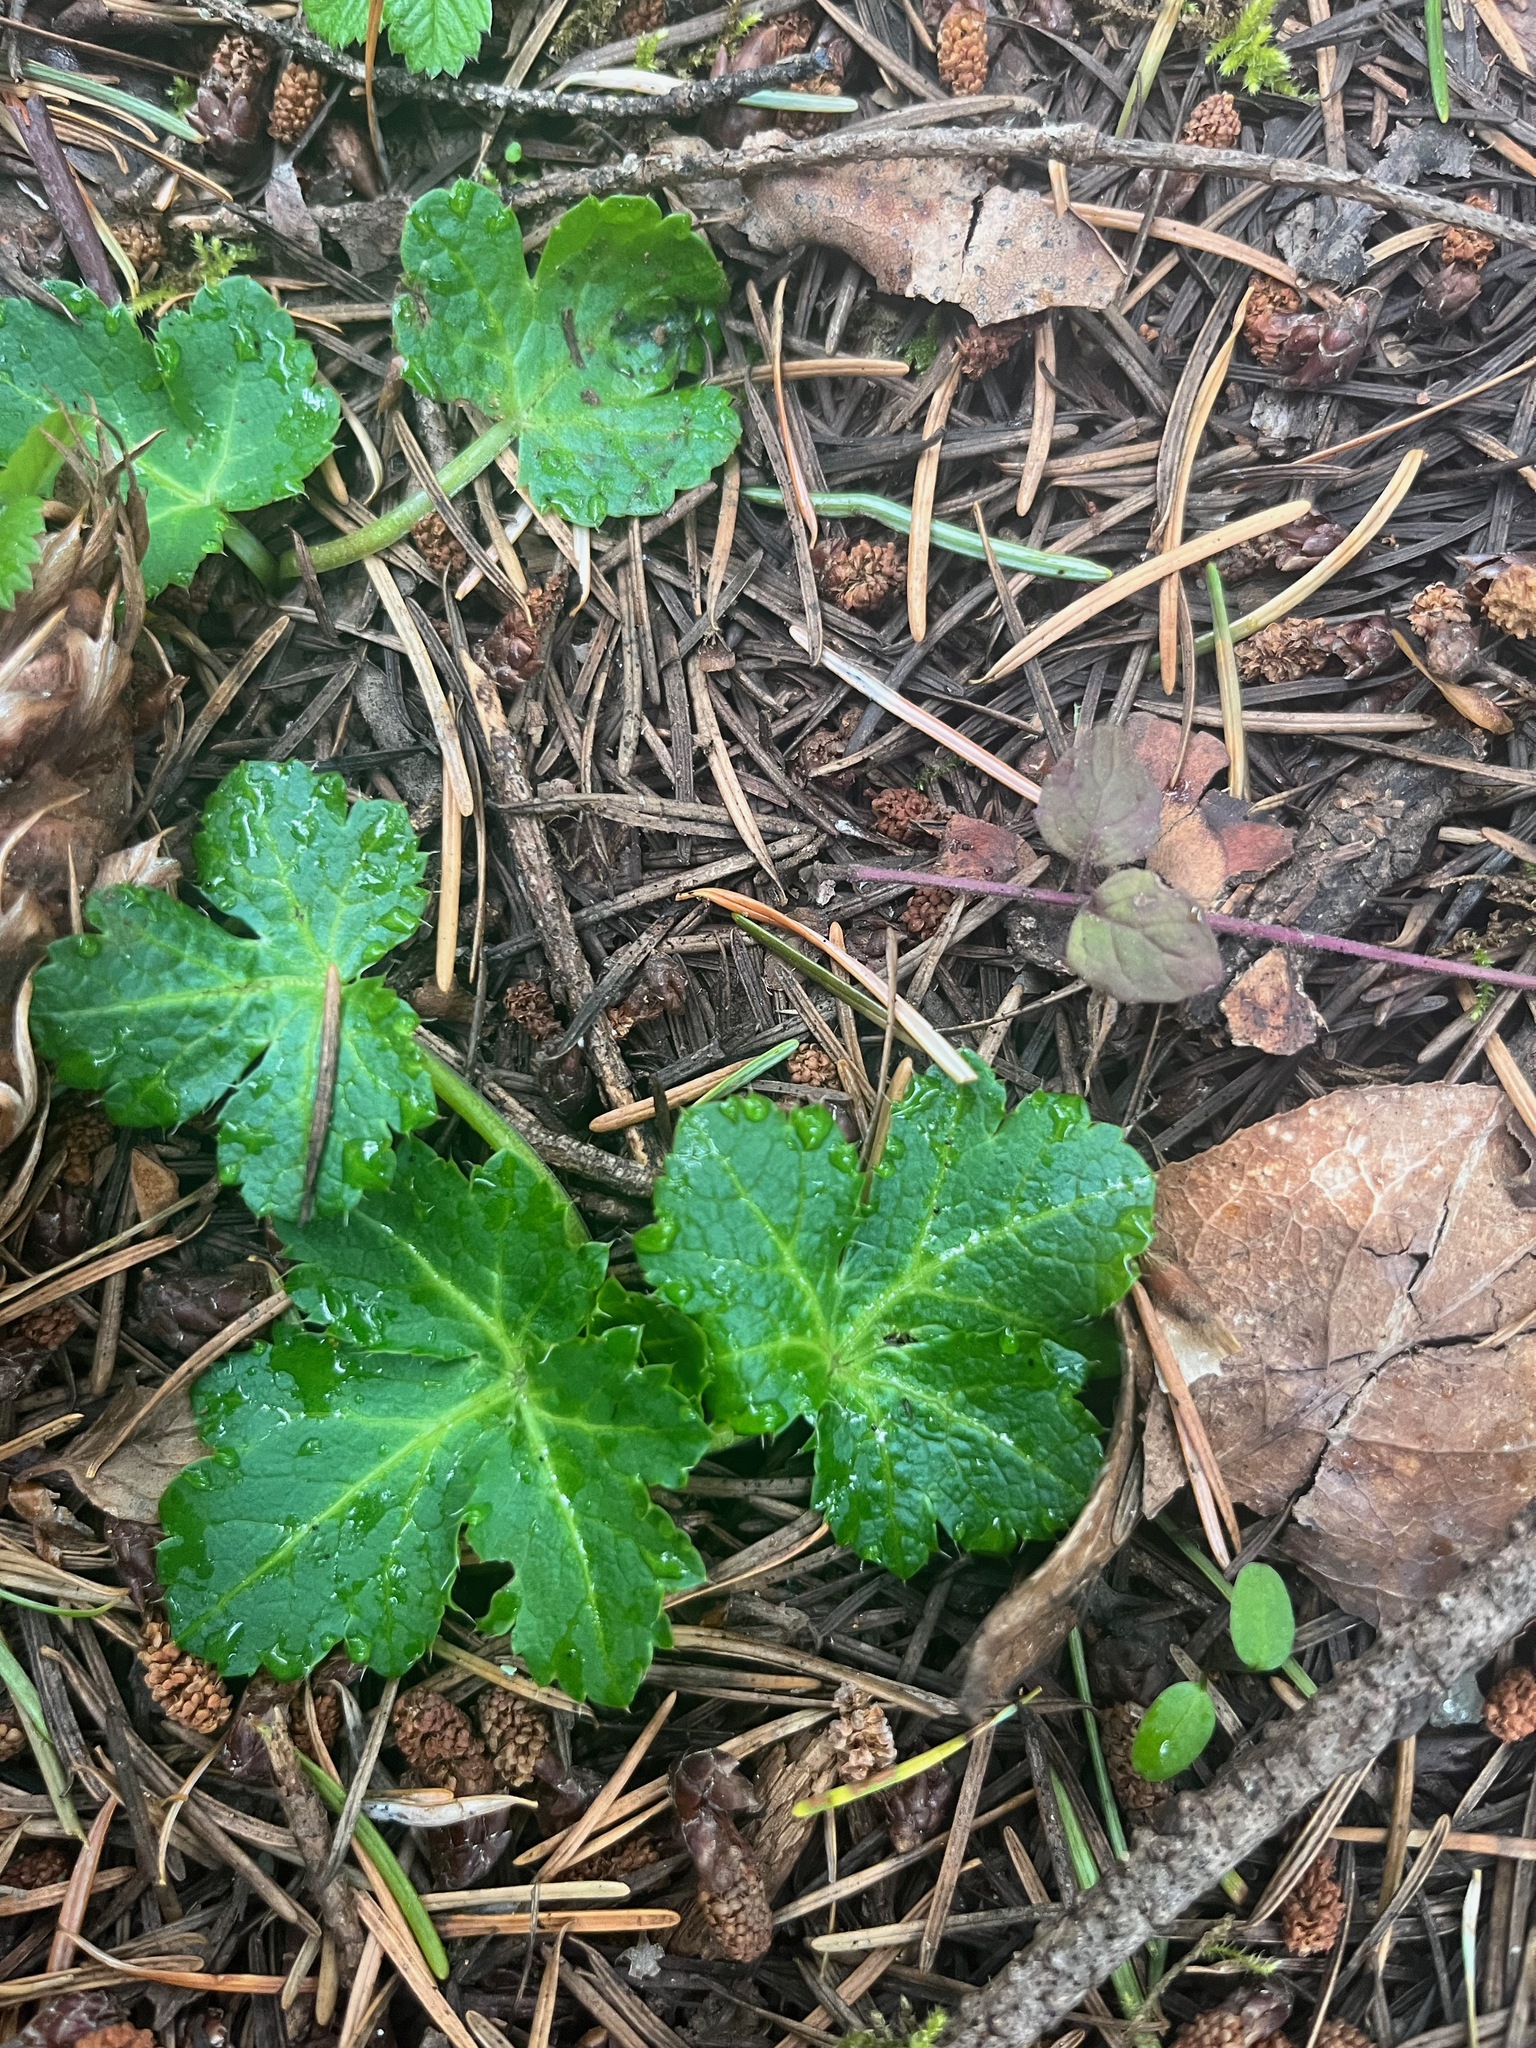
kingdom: Plantae
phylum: Tracheophyta
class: Magnoliopsida
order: Apiales
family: Apiaceae
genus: Sanicula
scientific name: Sanicula crassicaulis
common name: Western snakeroot
